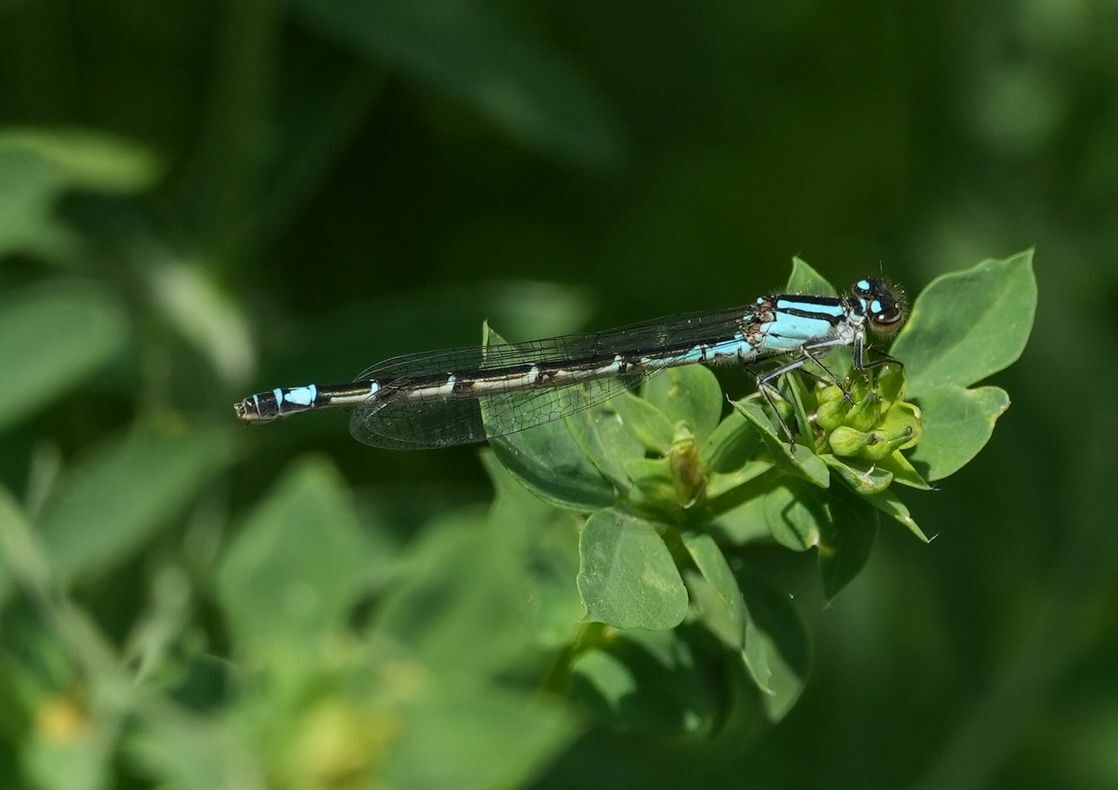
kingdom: Animalia
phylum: Arthropoda
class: Insecta
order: Odonata
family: Coenagrionidae
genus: Enallagma
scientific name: Enallagma geminatum
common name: Skimming bluet
